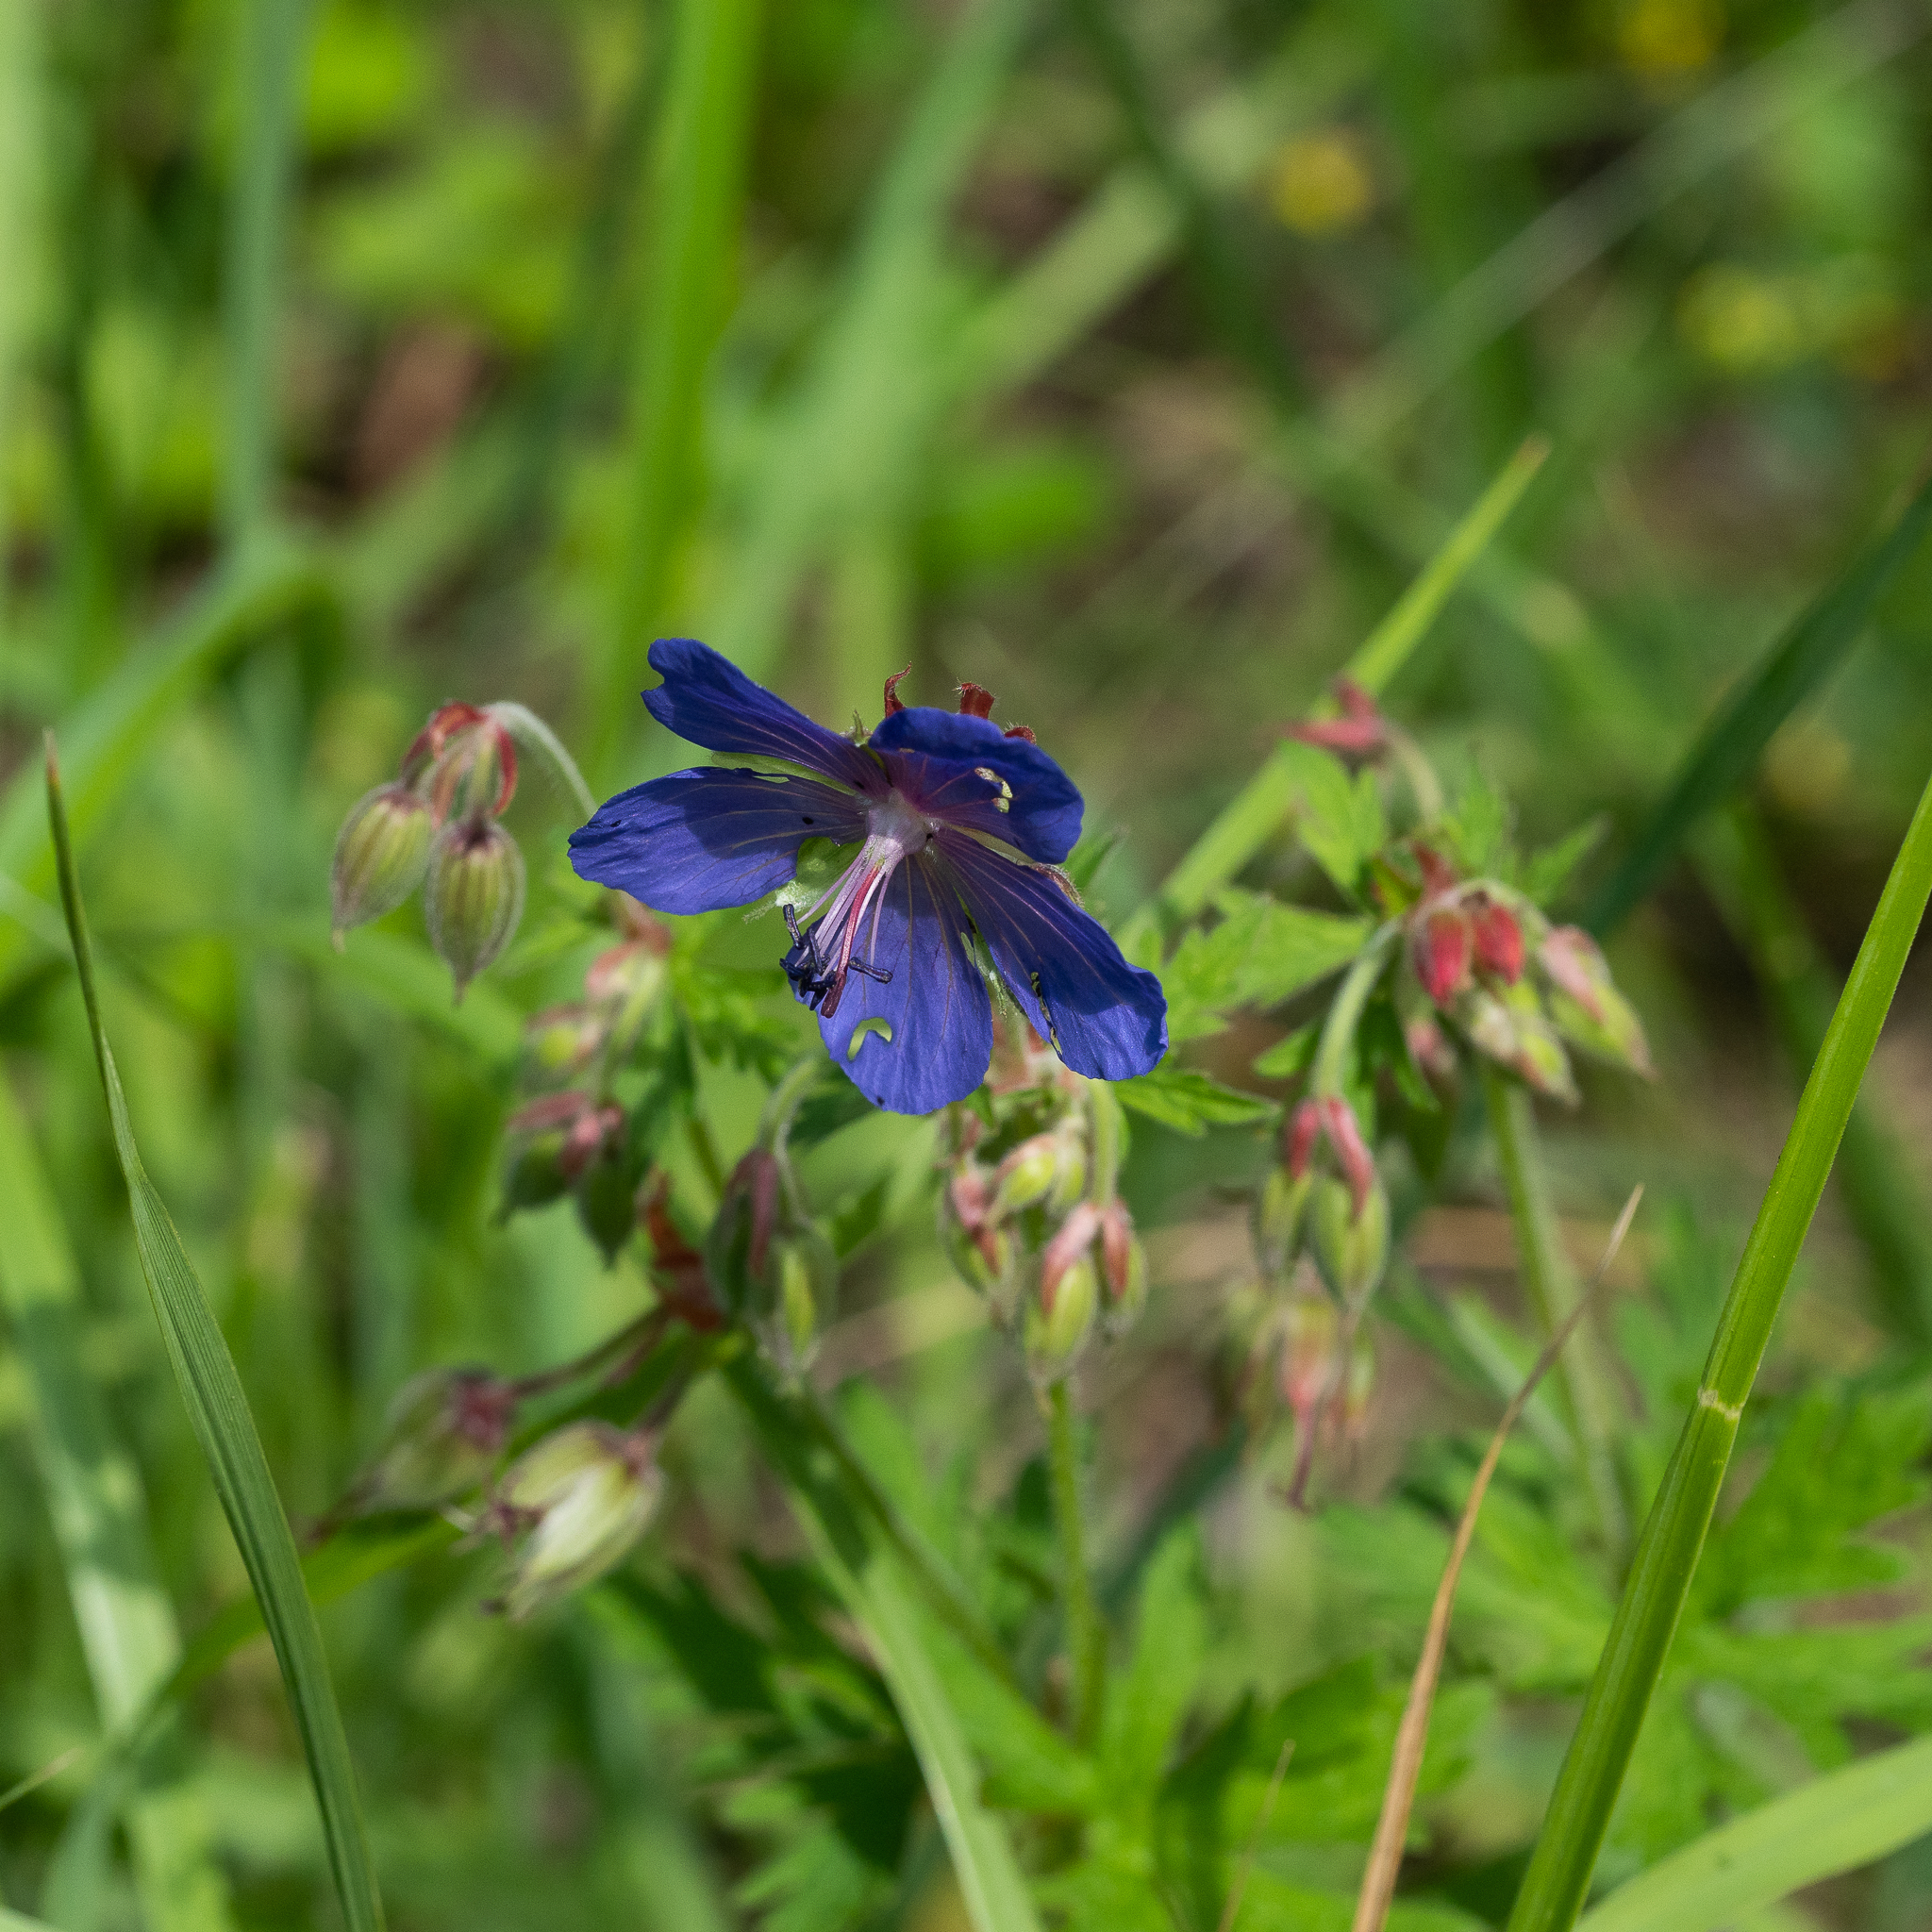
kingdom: Plantae
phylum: Tracheophyta
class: Magnoliopsida
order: Geraniales
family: Geraniaceae
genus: Geranium
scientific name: Geranium pratense
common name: Meadow crane's-bill
